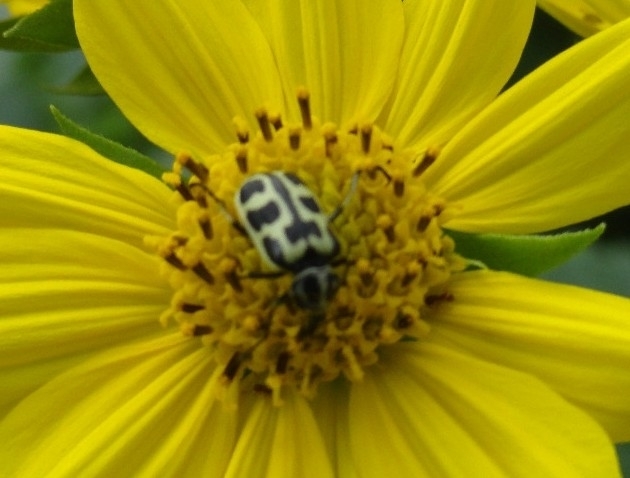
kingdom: Animalia
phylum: Arthropoda
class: Insecta
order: Coleoptera
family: Melyridae
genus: Astylus
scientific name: Astylus atromaculatus
